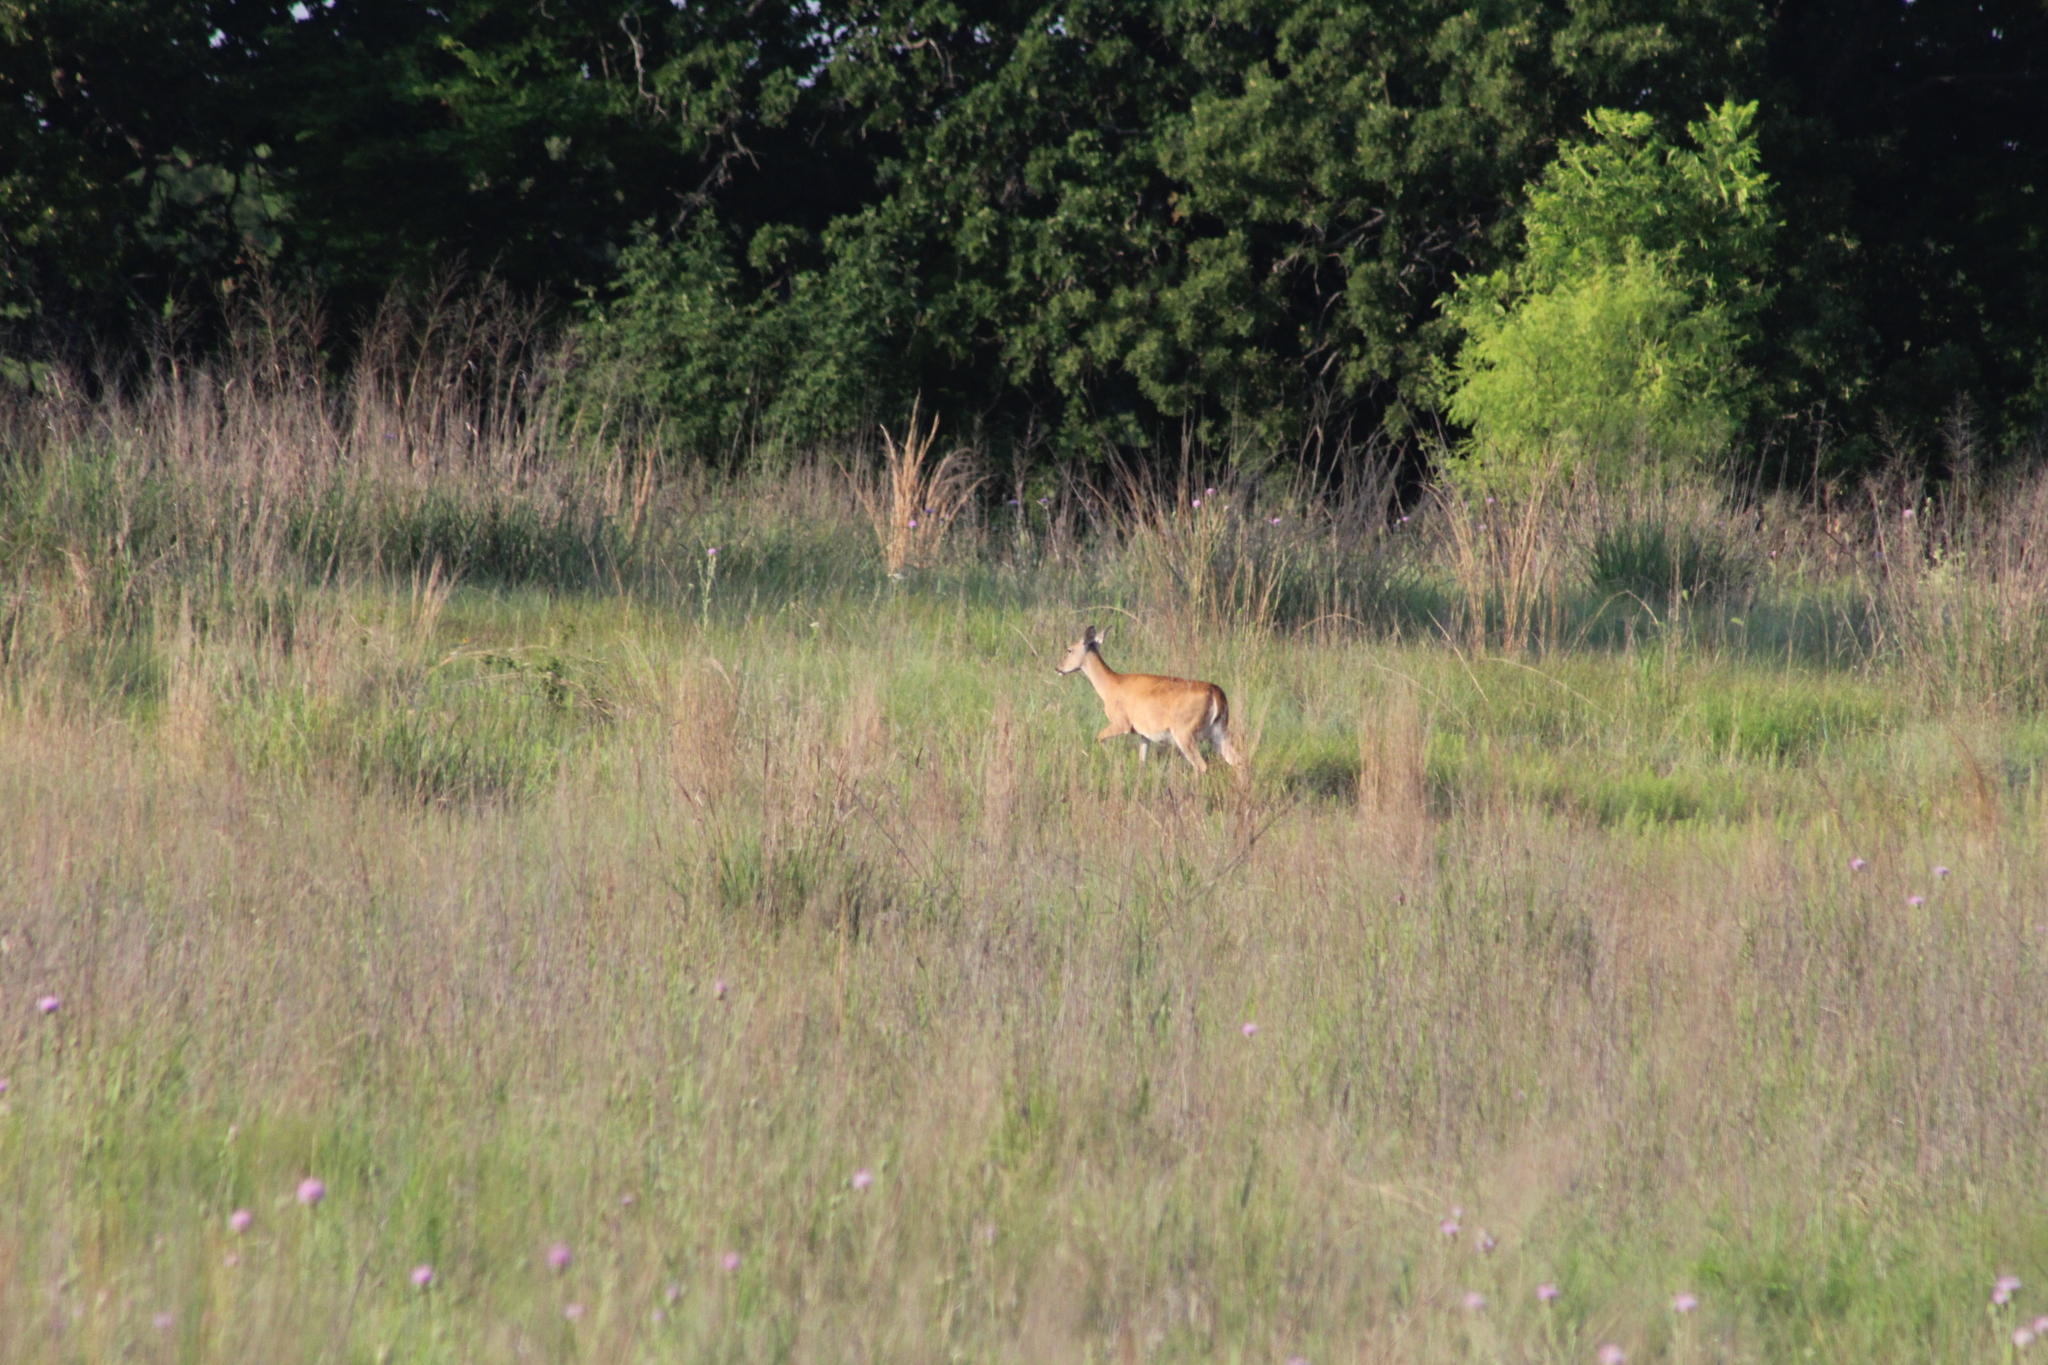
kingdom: Animalia
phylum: Chordata
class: Mammalia
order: Artiodactyla
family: Cervidae
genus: Odocoileus
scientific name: Odocoileus virginianus
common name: White-tailed deer
